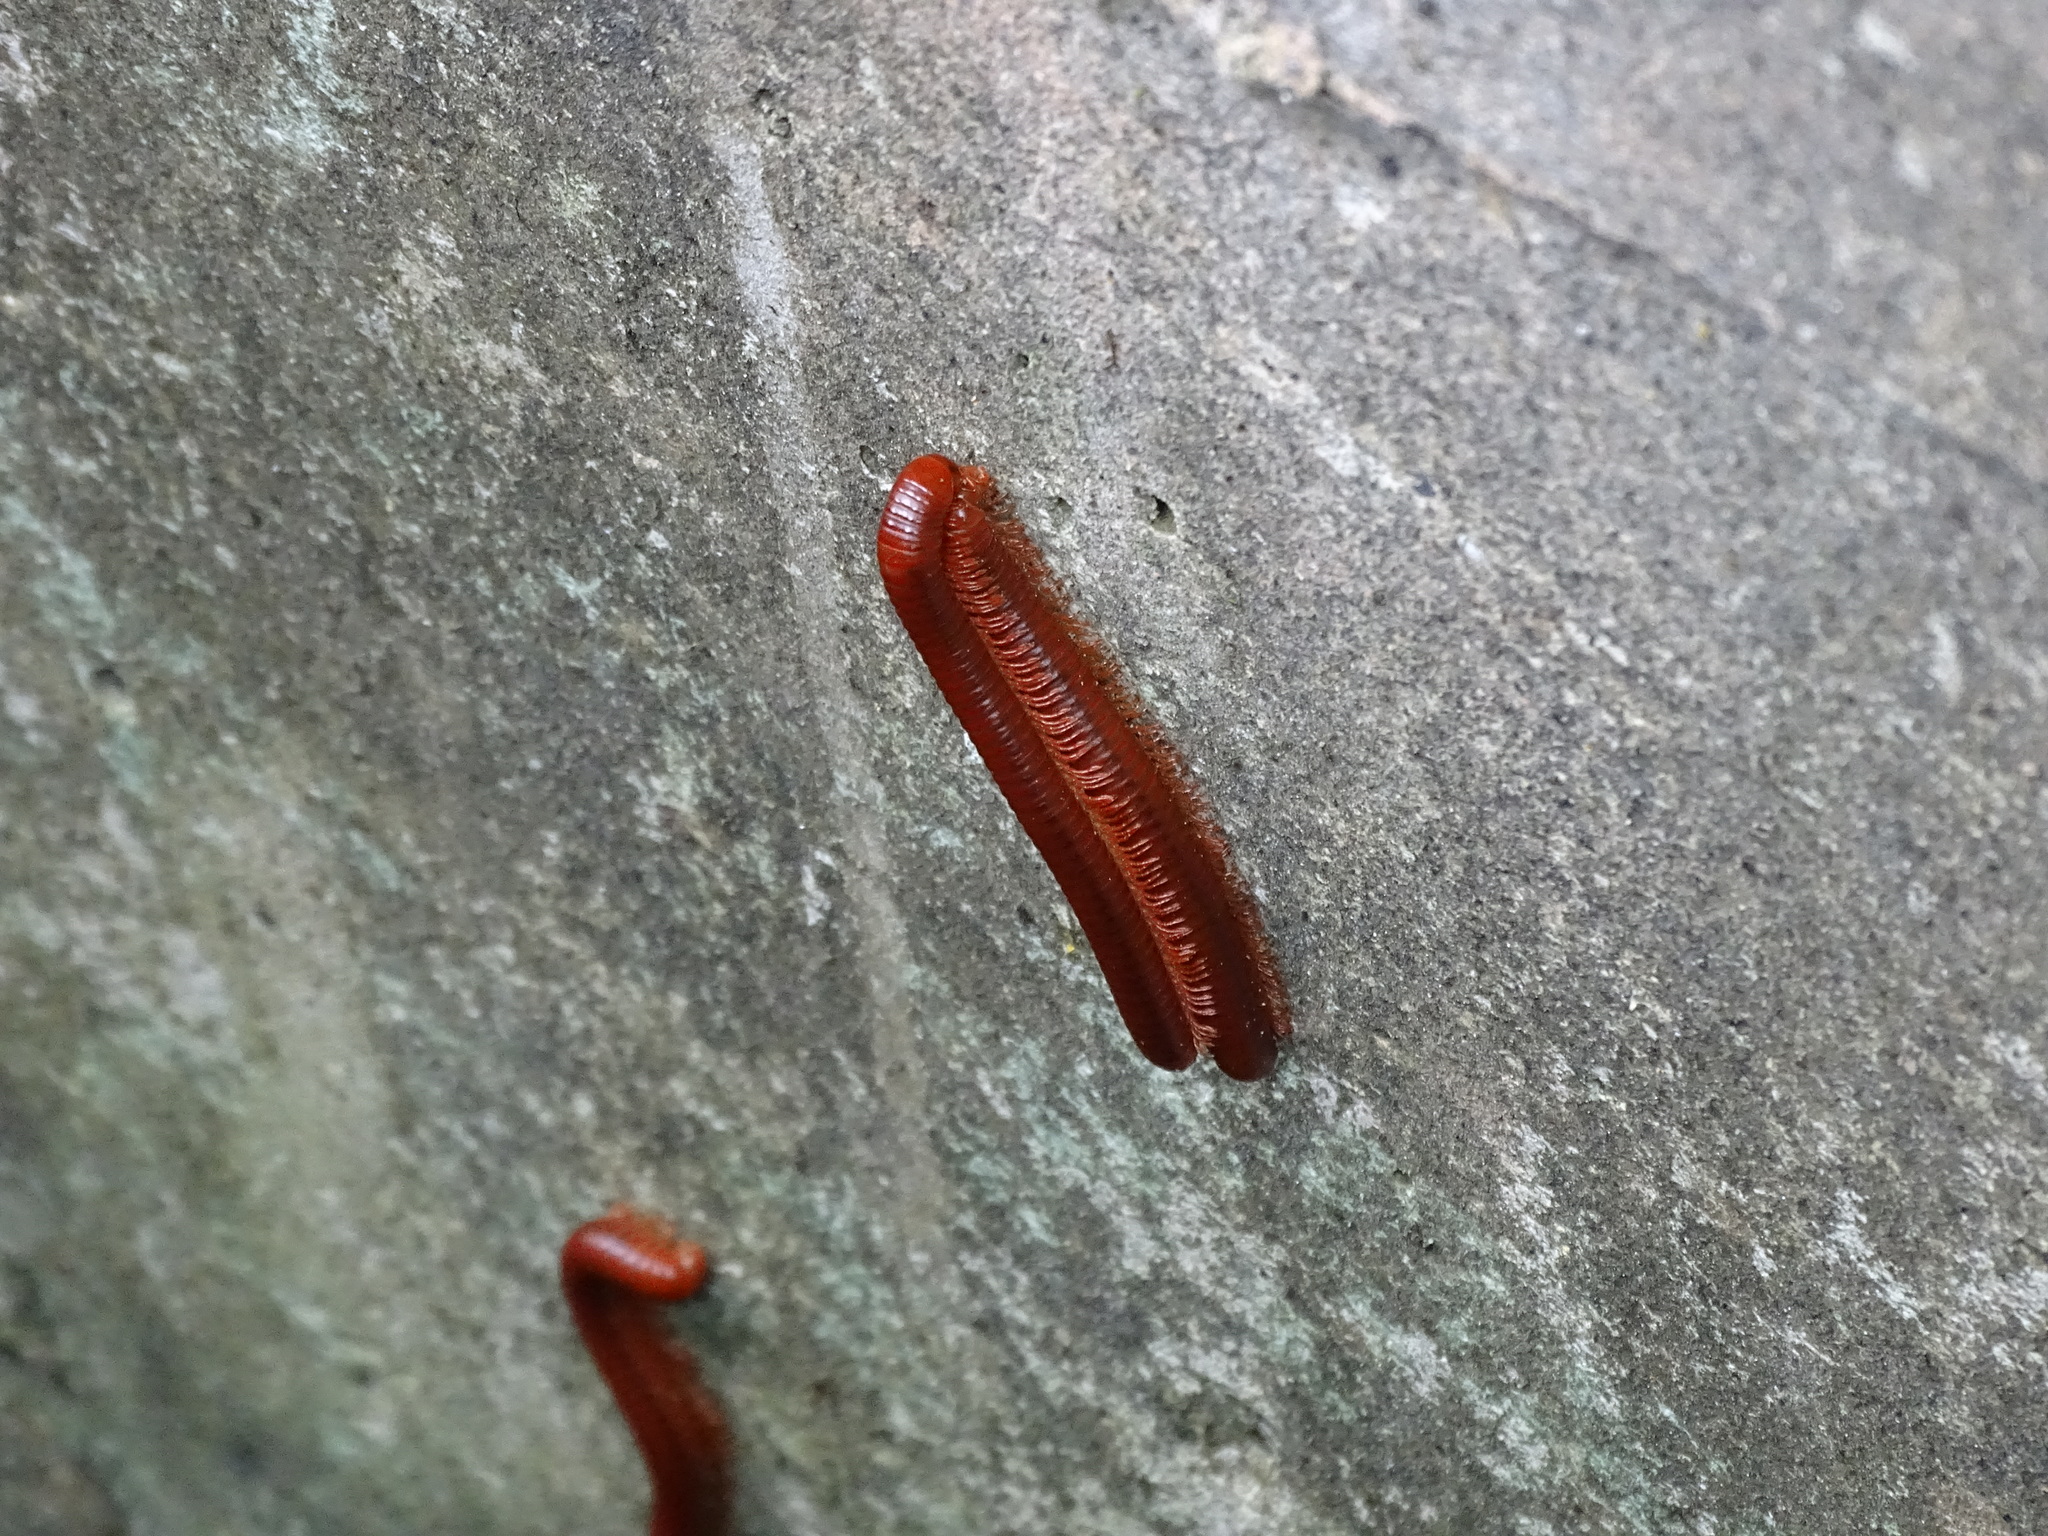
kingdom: Animalia
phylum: Arthropoda
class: Diplopoda
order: Spirobolida
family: Pachybolidae
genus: Trigoniulus
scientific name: Trigoniulus corallinus
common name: Millipede
